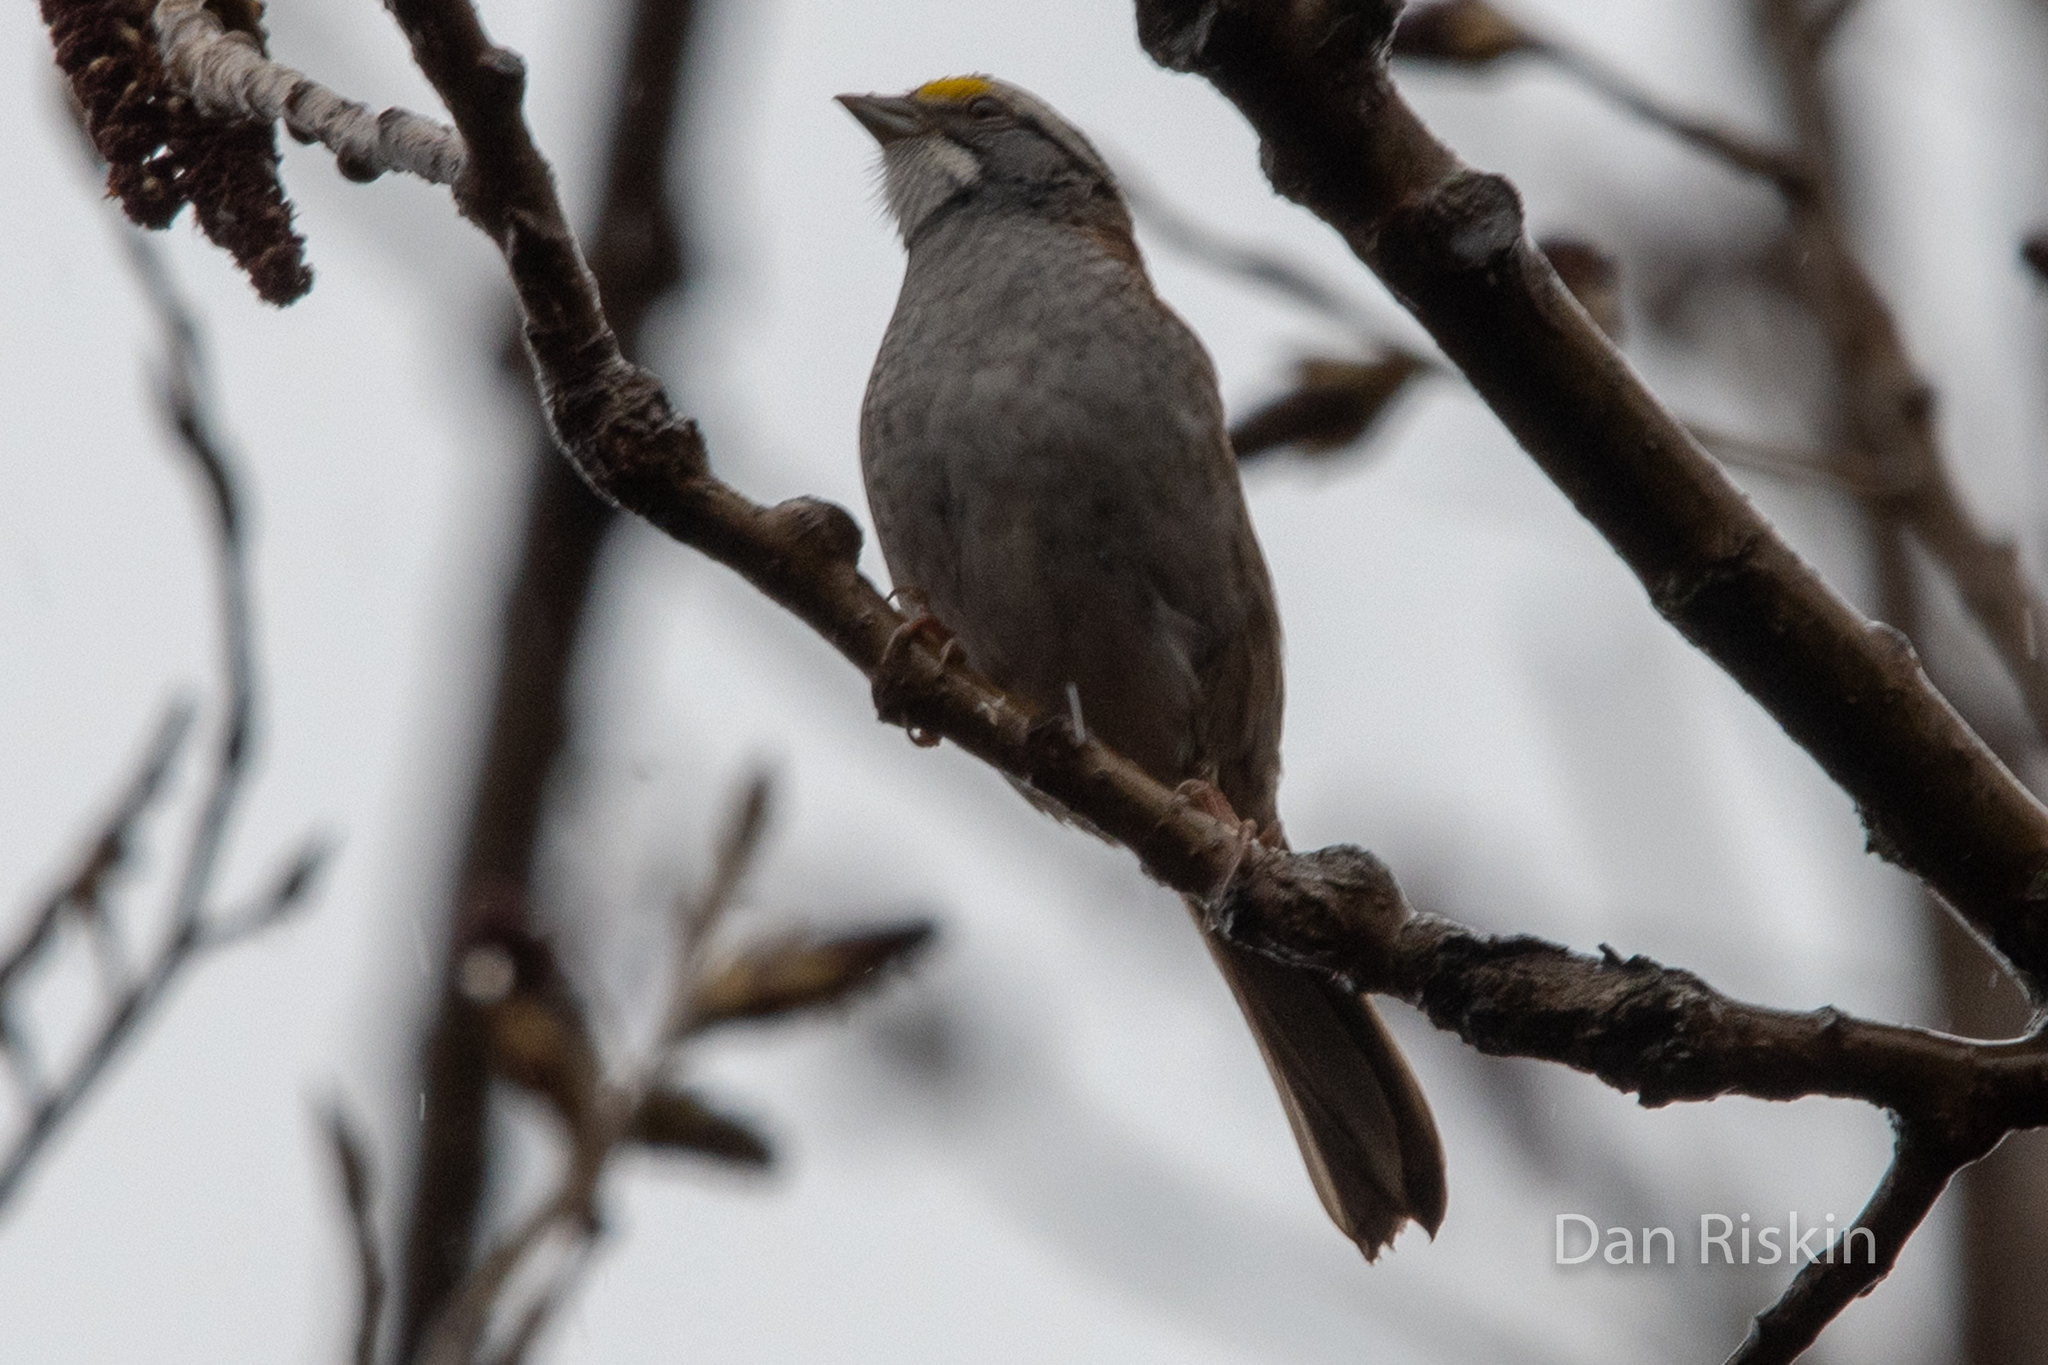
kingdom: Animalia
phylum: Chordata
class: Aves
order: Passeriformes
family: Passerellidae
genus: Zonotrichia
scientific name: Zonotrichia albicollis
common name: White-throated sparrow
